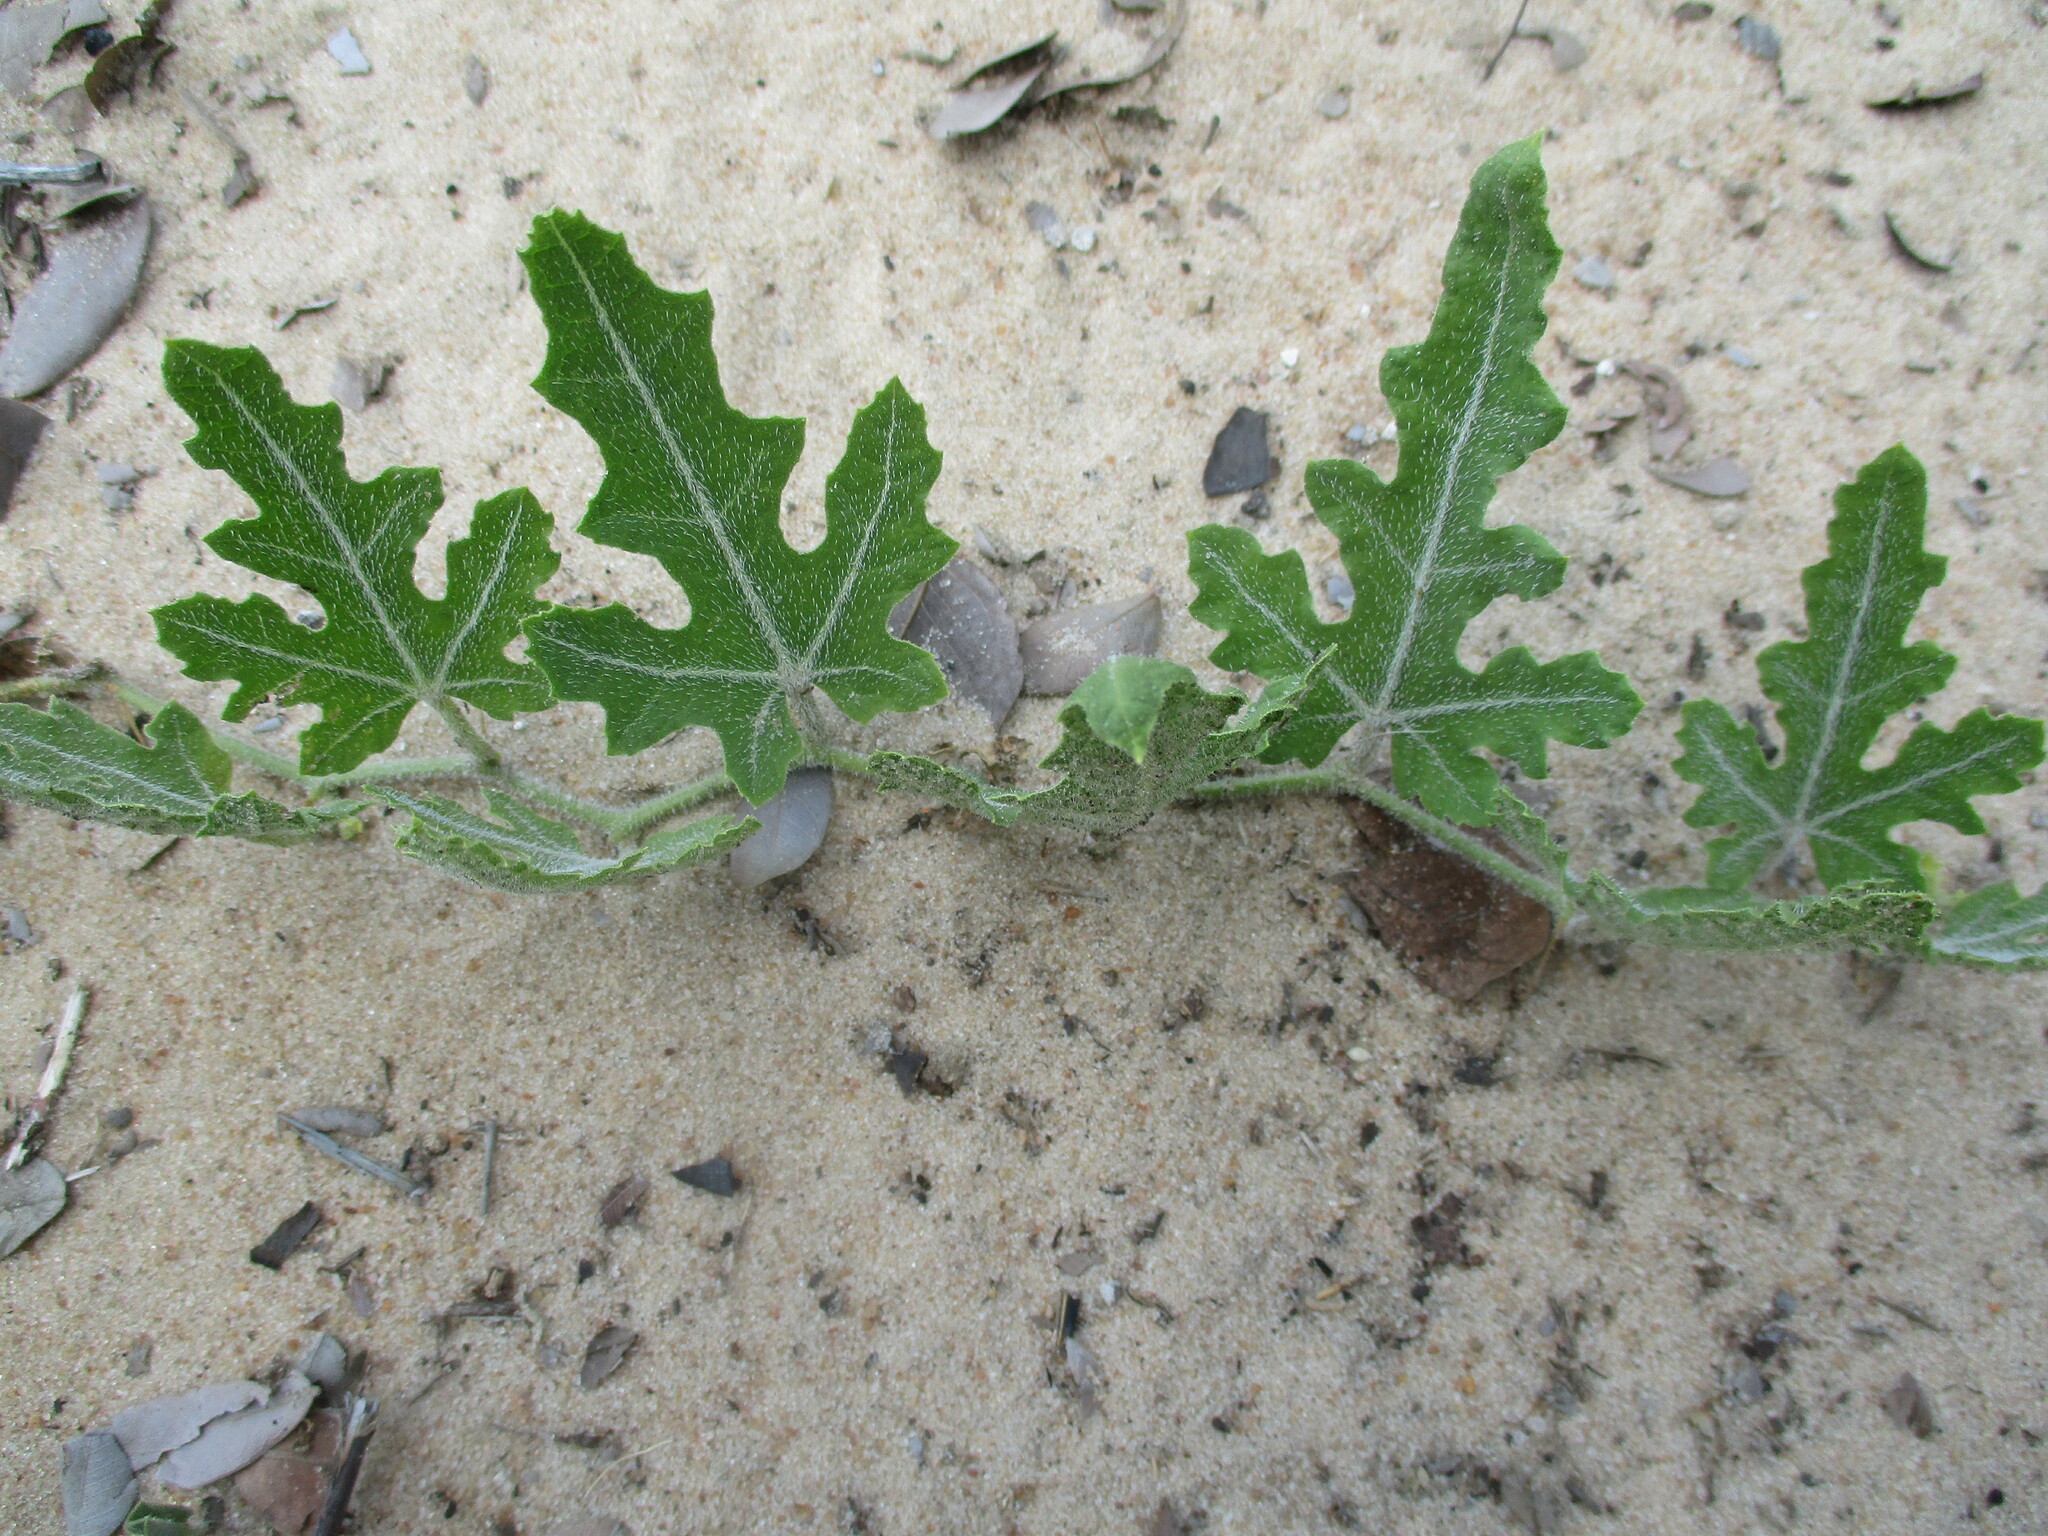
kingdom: Plantae
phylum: Tracheophyta
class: Magnoliopsida
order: Cucurbitales
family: Cucurbitaceae
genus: Citrullus
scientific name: Citrullus naudinianus
